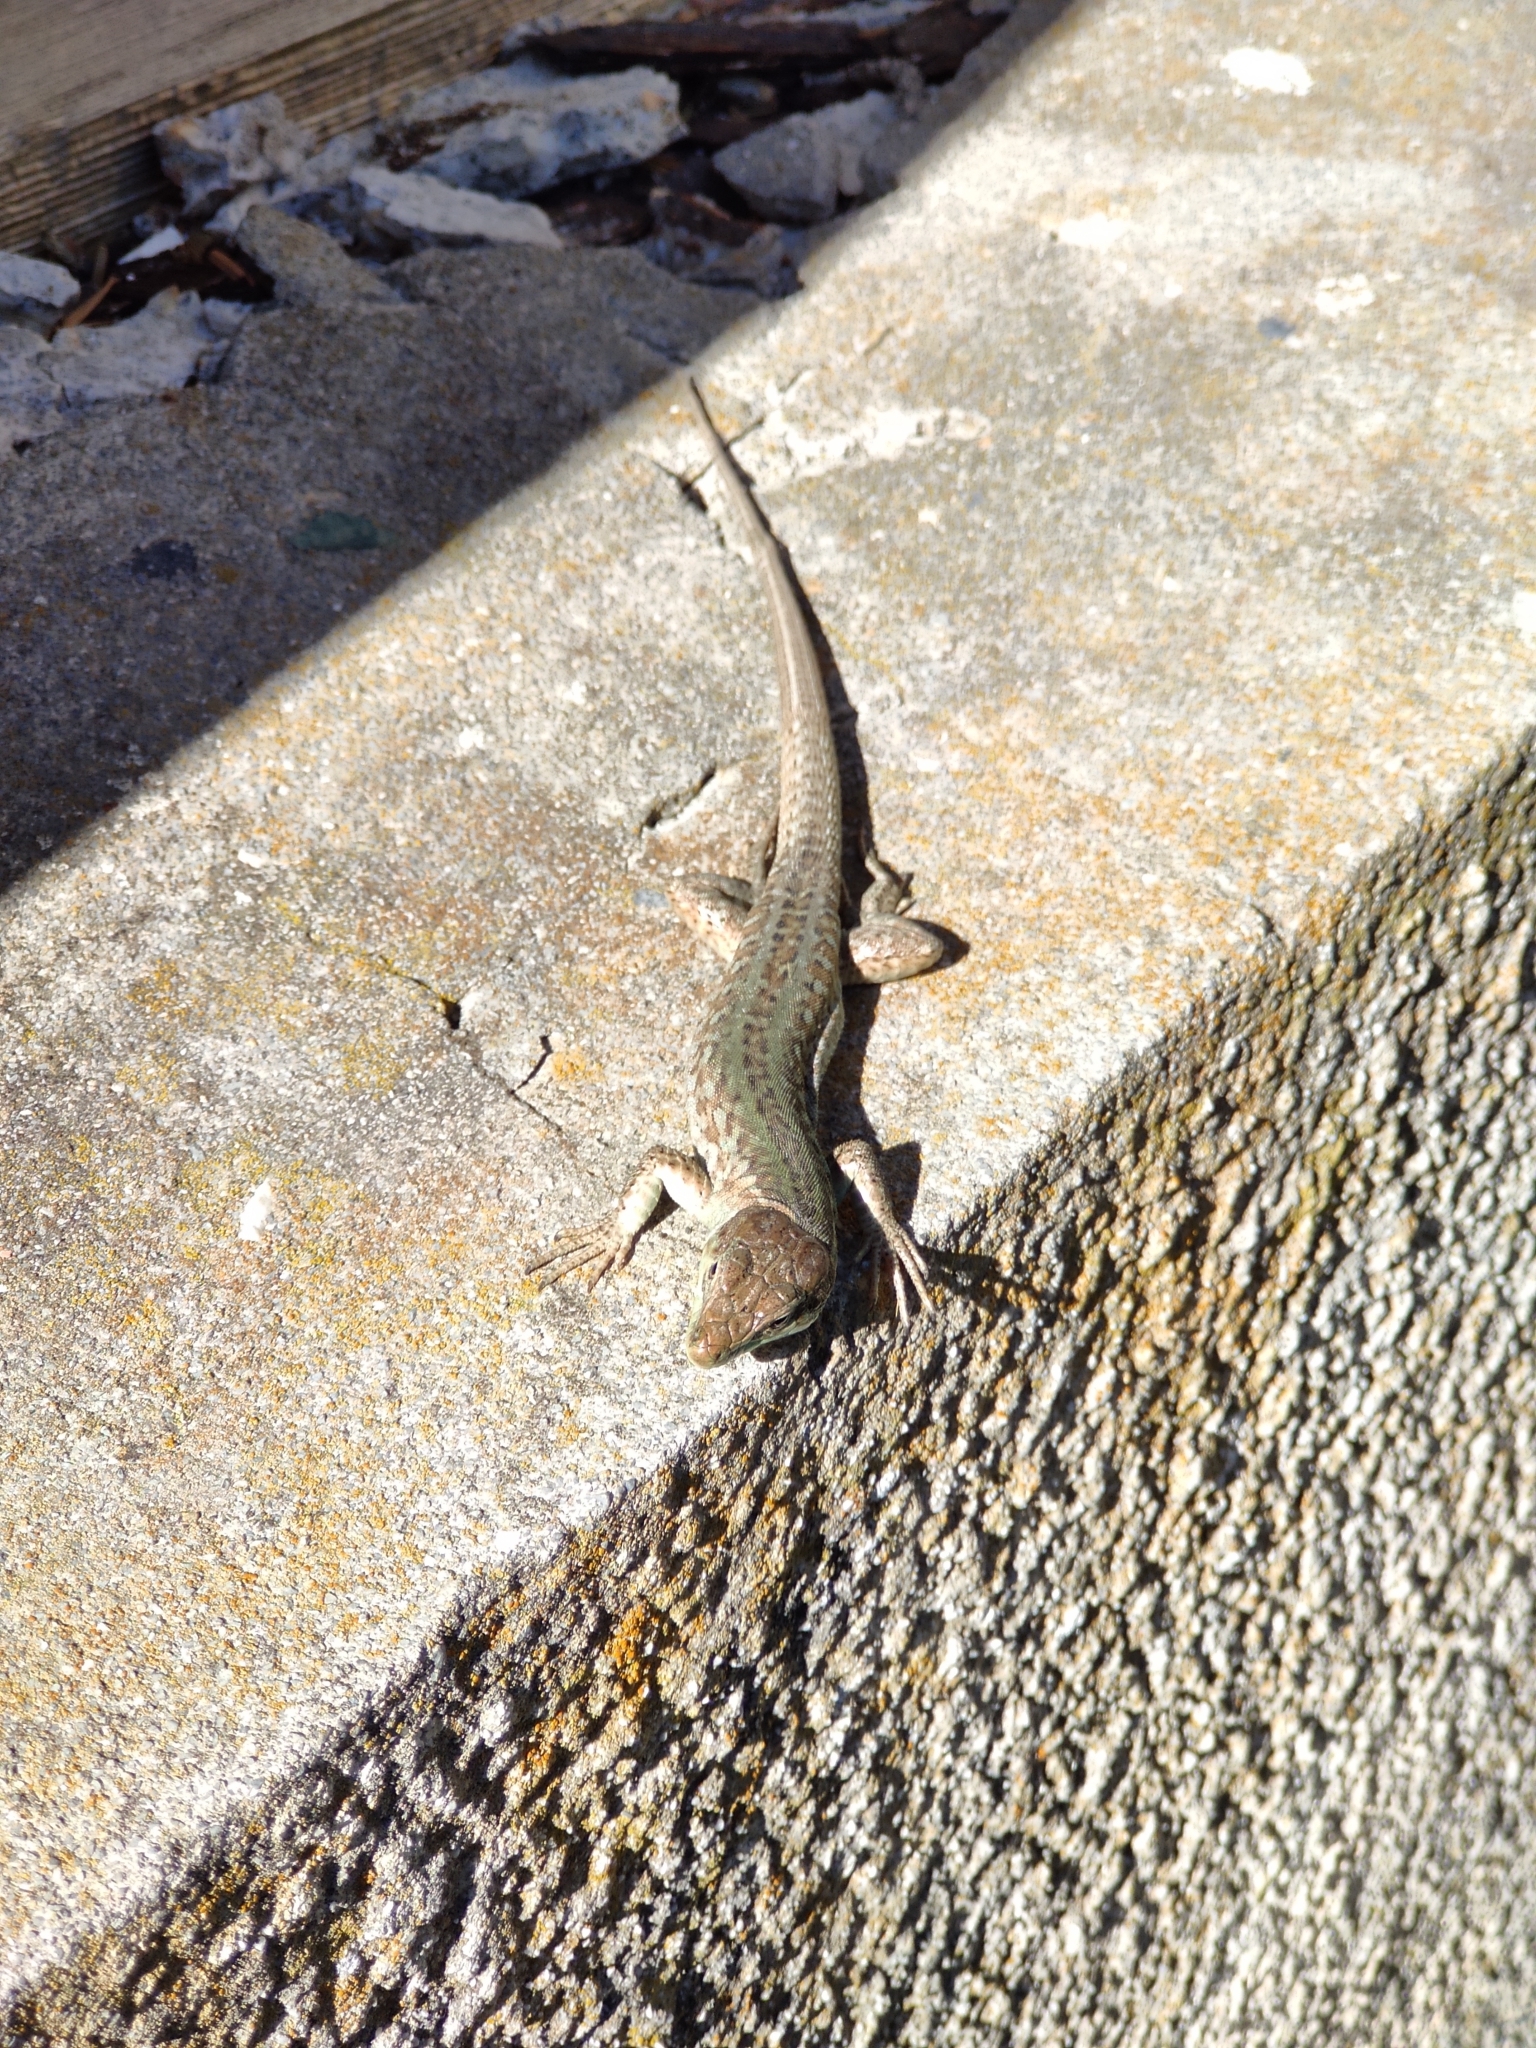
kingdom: Animalia
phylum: Chordata
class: Squamata
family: Lacertidae
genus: Podarcis
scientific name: Podarcis siculus
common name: Italian wall lizard
